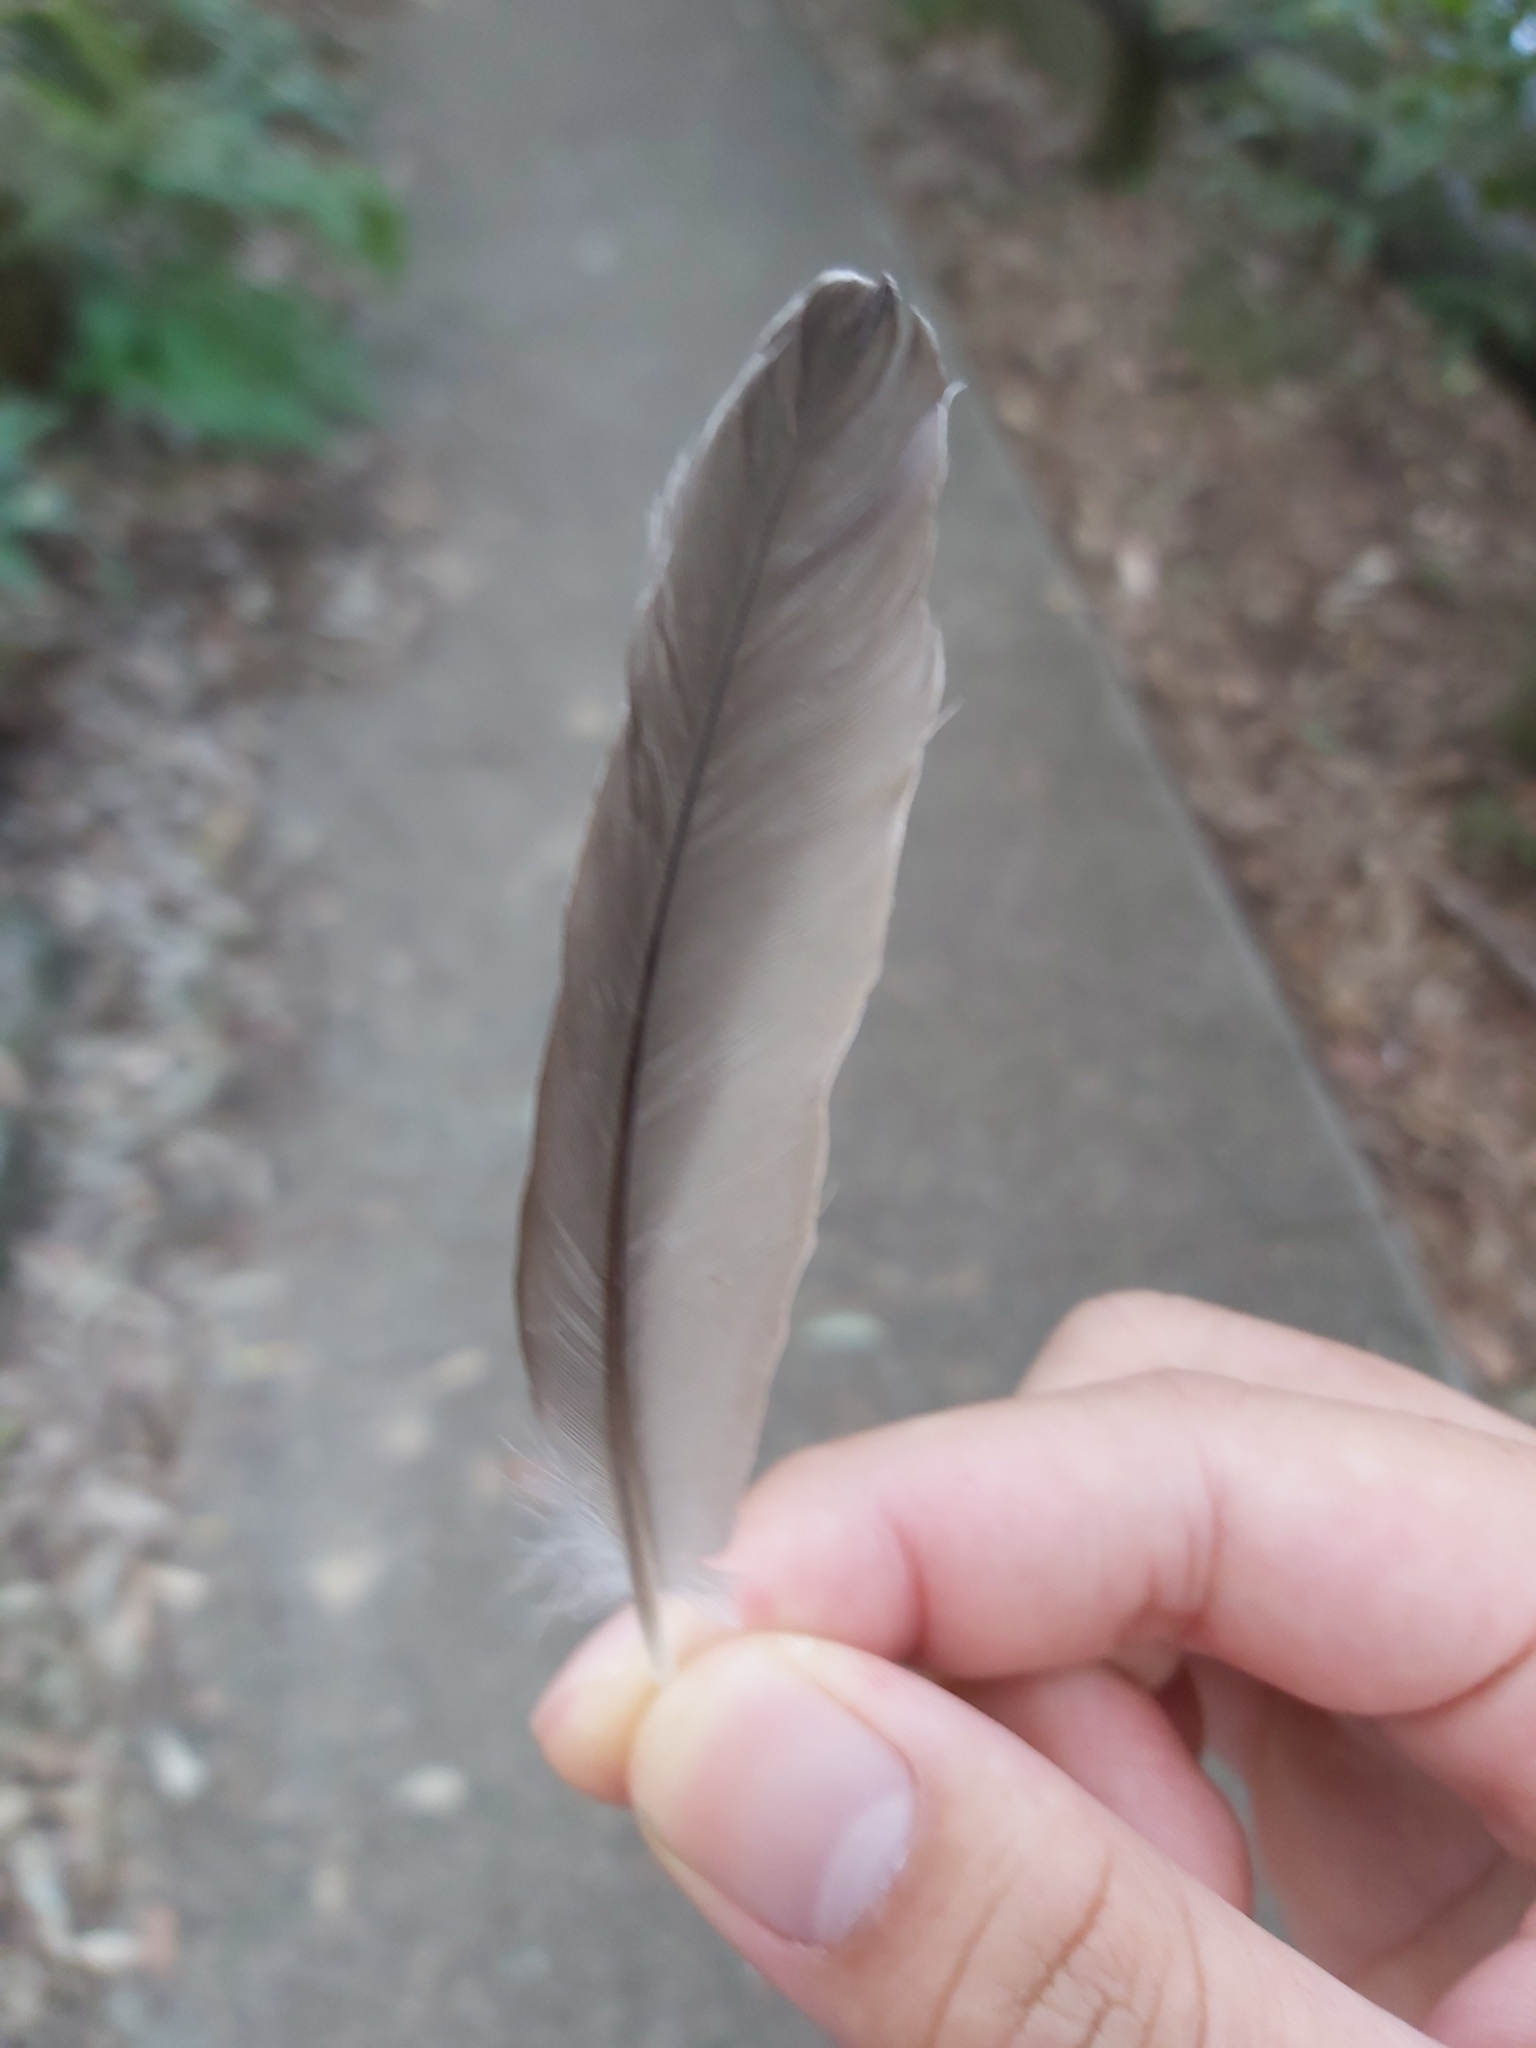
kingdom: Animalia
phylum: Chordata
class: Aves
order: Passeriformes
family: Campephagidae
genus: Coracina
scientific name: Coracina novaehollandiae
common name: Black-faced cuckooshrike
